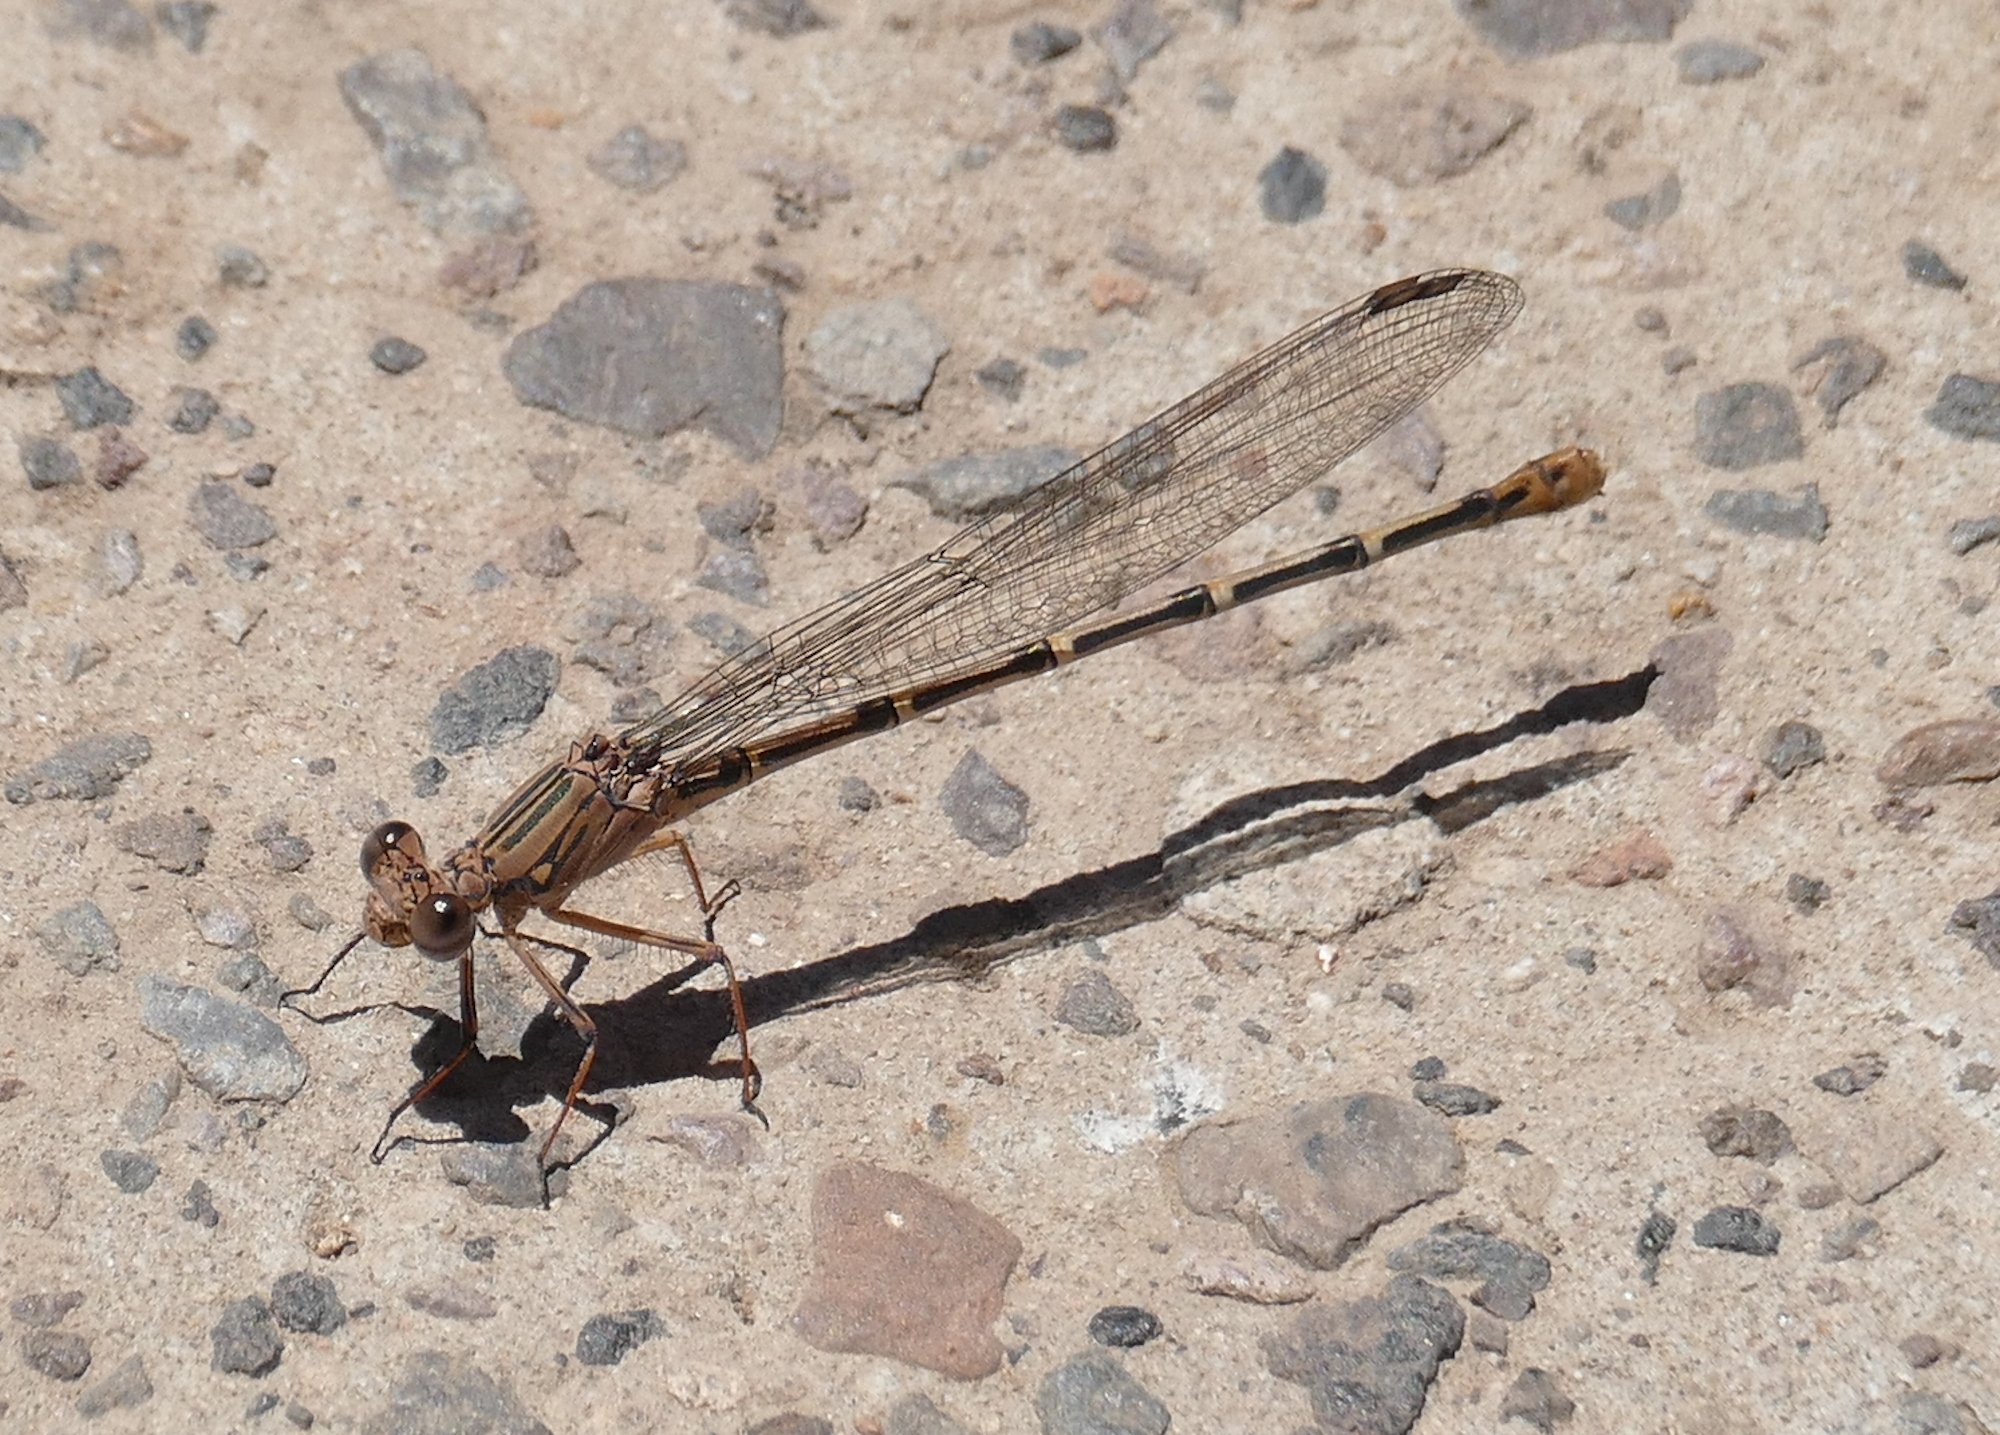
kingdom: Animalia
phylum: Arthropoda
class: Insecta
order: Odonata
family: Coenagrionidae
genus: Argia
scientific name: Argia lugens
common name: Sooty dancer
